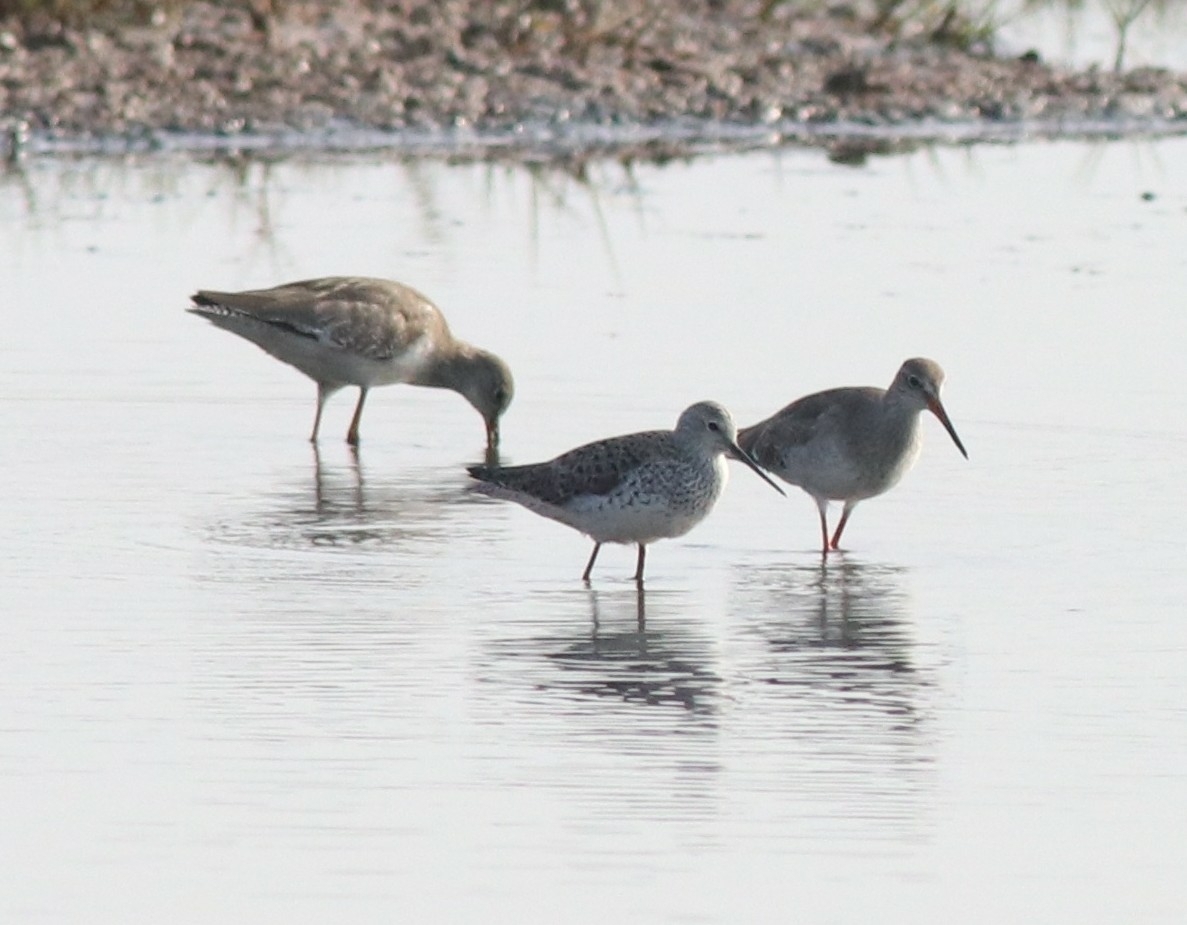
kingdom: Animalia
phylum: Chordata
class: Aves
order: Charadriiformes
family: Scolopacidae
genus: Tringa
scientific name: Tringa stagnatilis
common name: Marsh sandpiper
